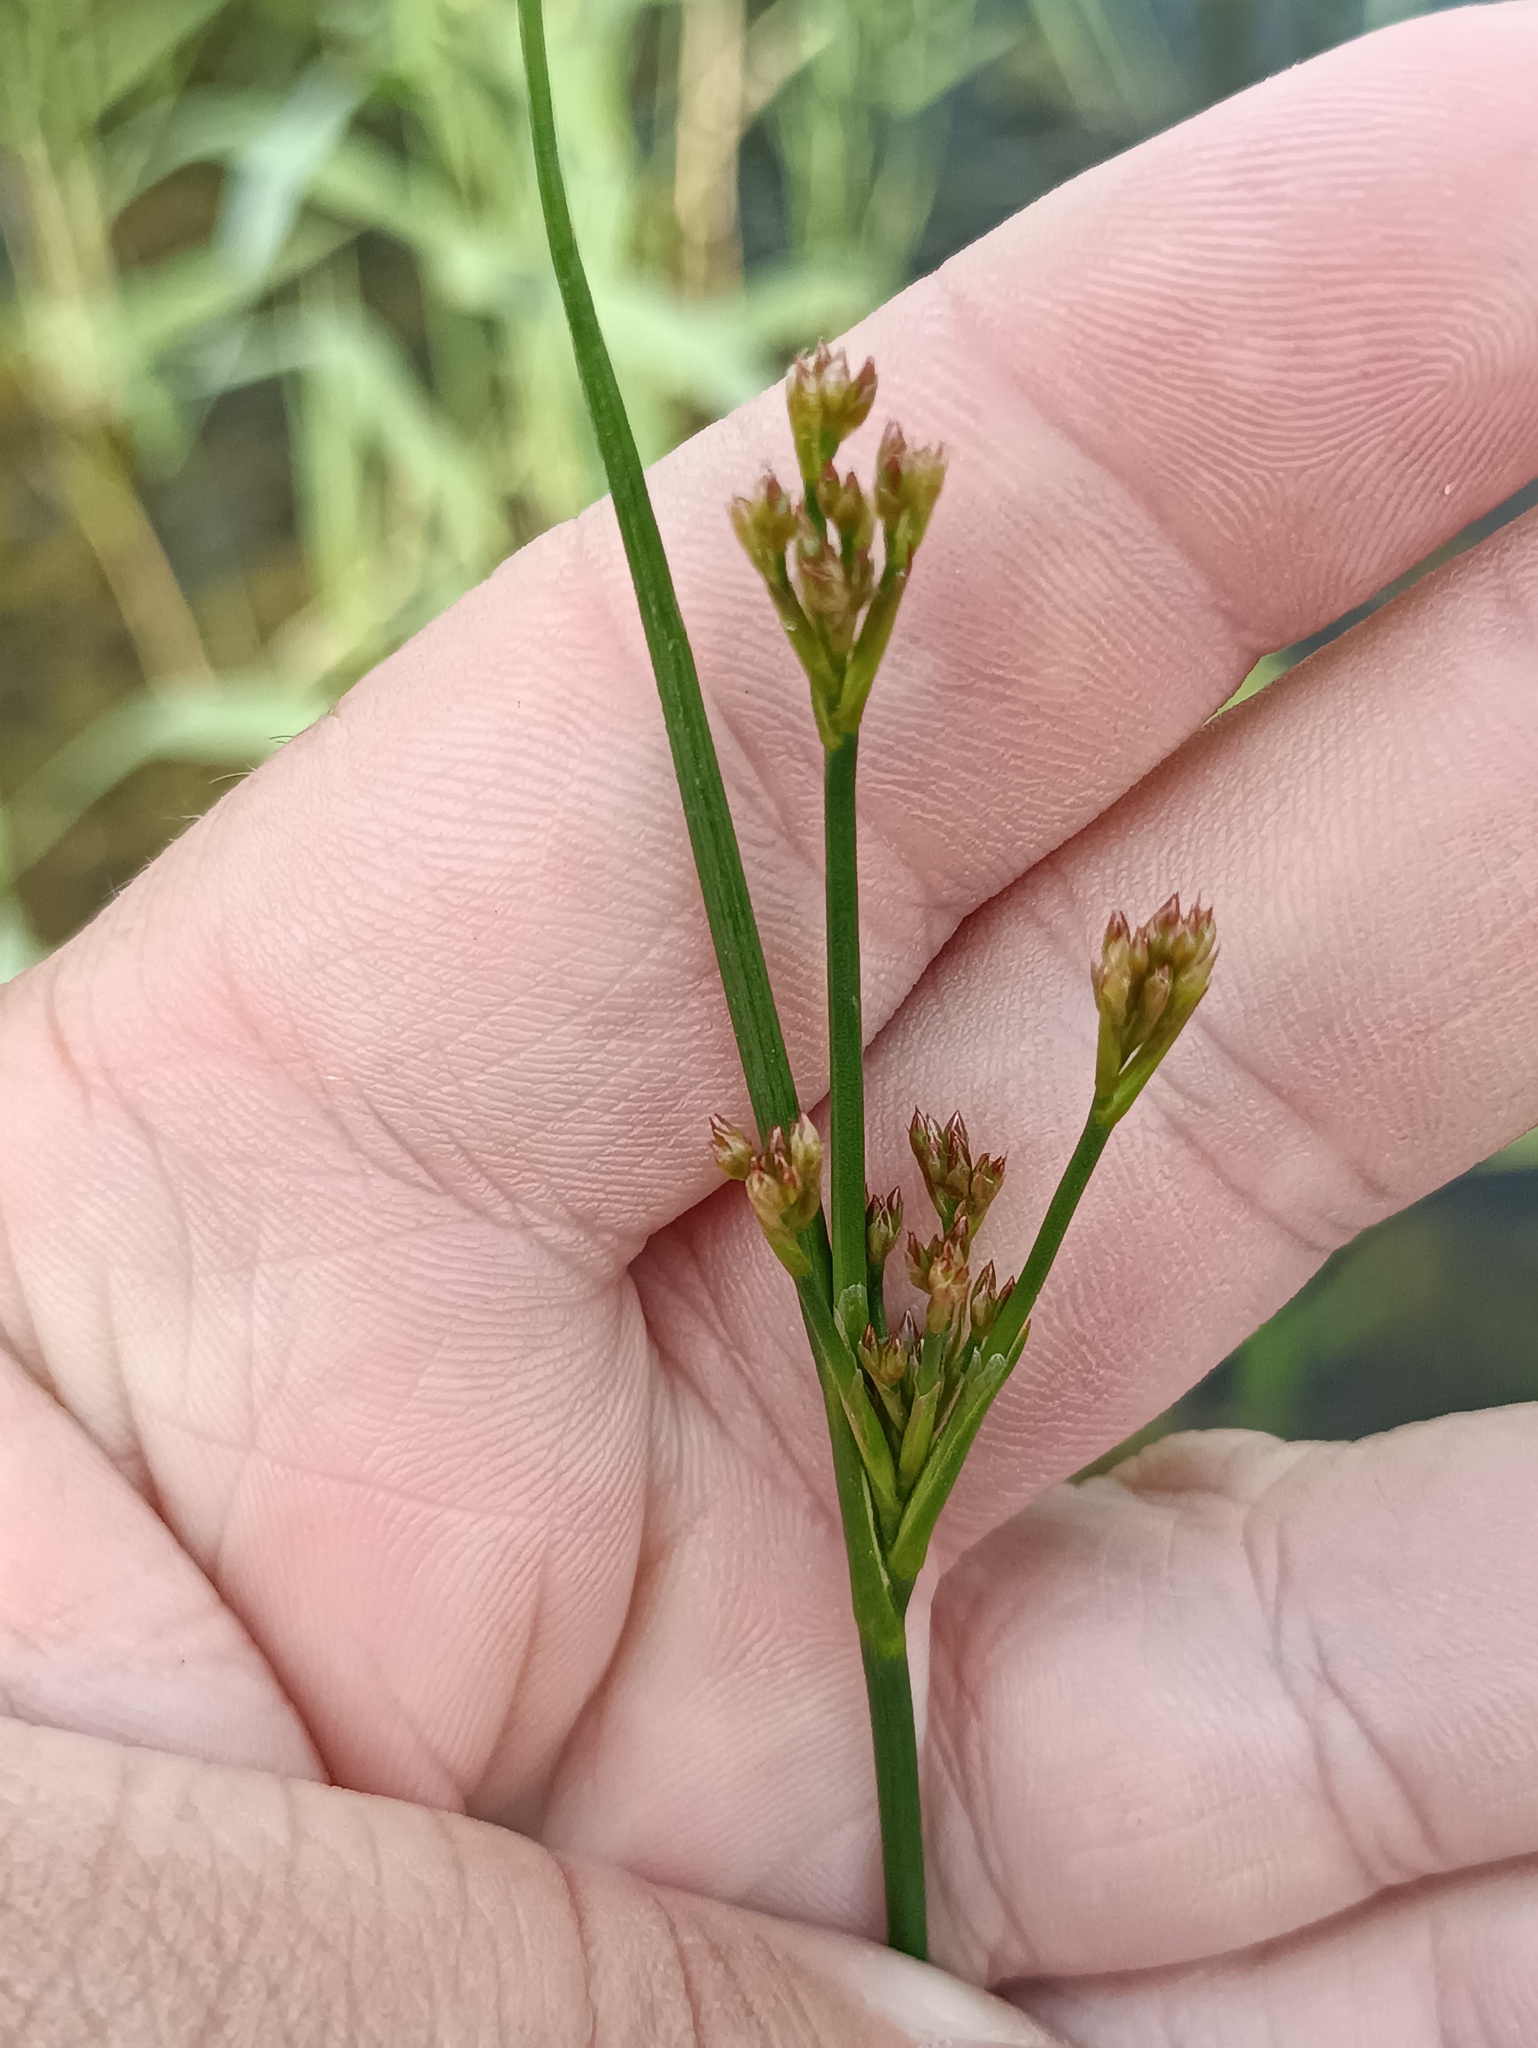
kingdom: Plantae
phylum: Tracheophyta
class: Liliopsida
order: Poales
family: Juncaceae
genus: Juncus
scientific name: Juncus articulatus
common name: Jointed rush
